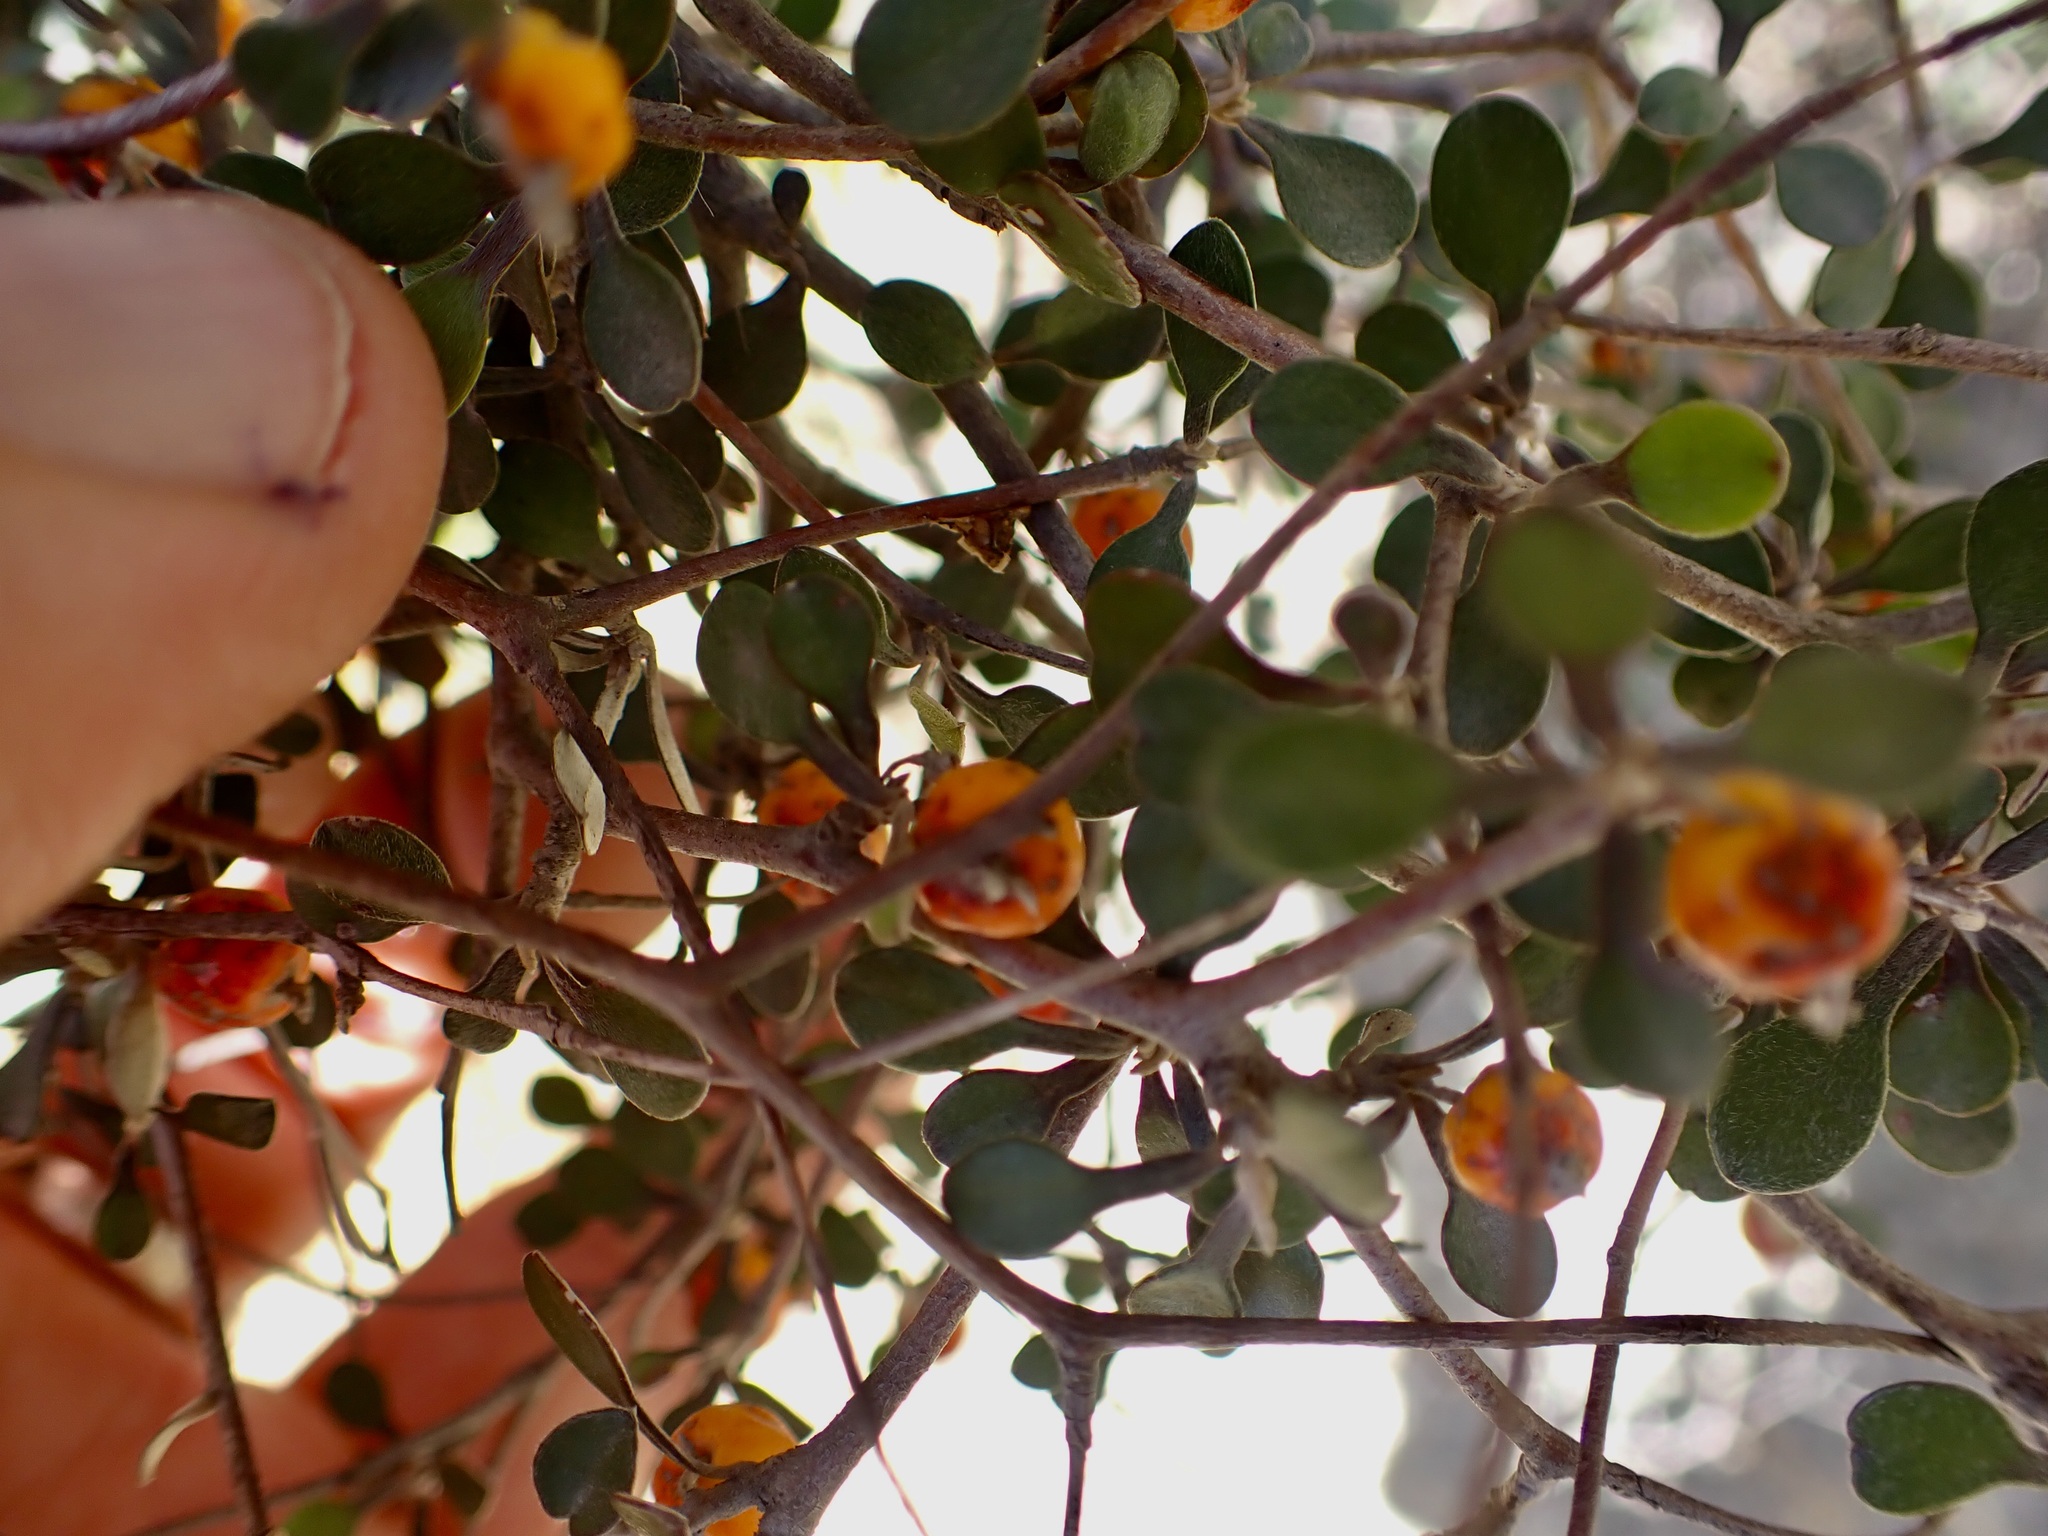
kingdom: Plantae
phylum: Tracheophyta
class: Magnoliopsida
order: Asterales
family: Argophyllaceae
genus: Corokia
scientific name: Corokia cotoneaster
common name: Wire nettingbush
